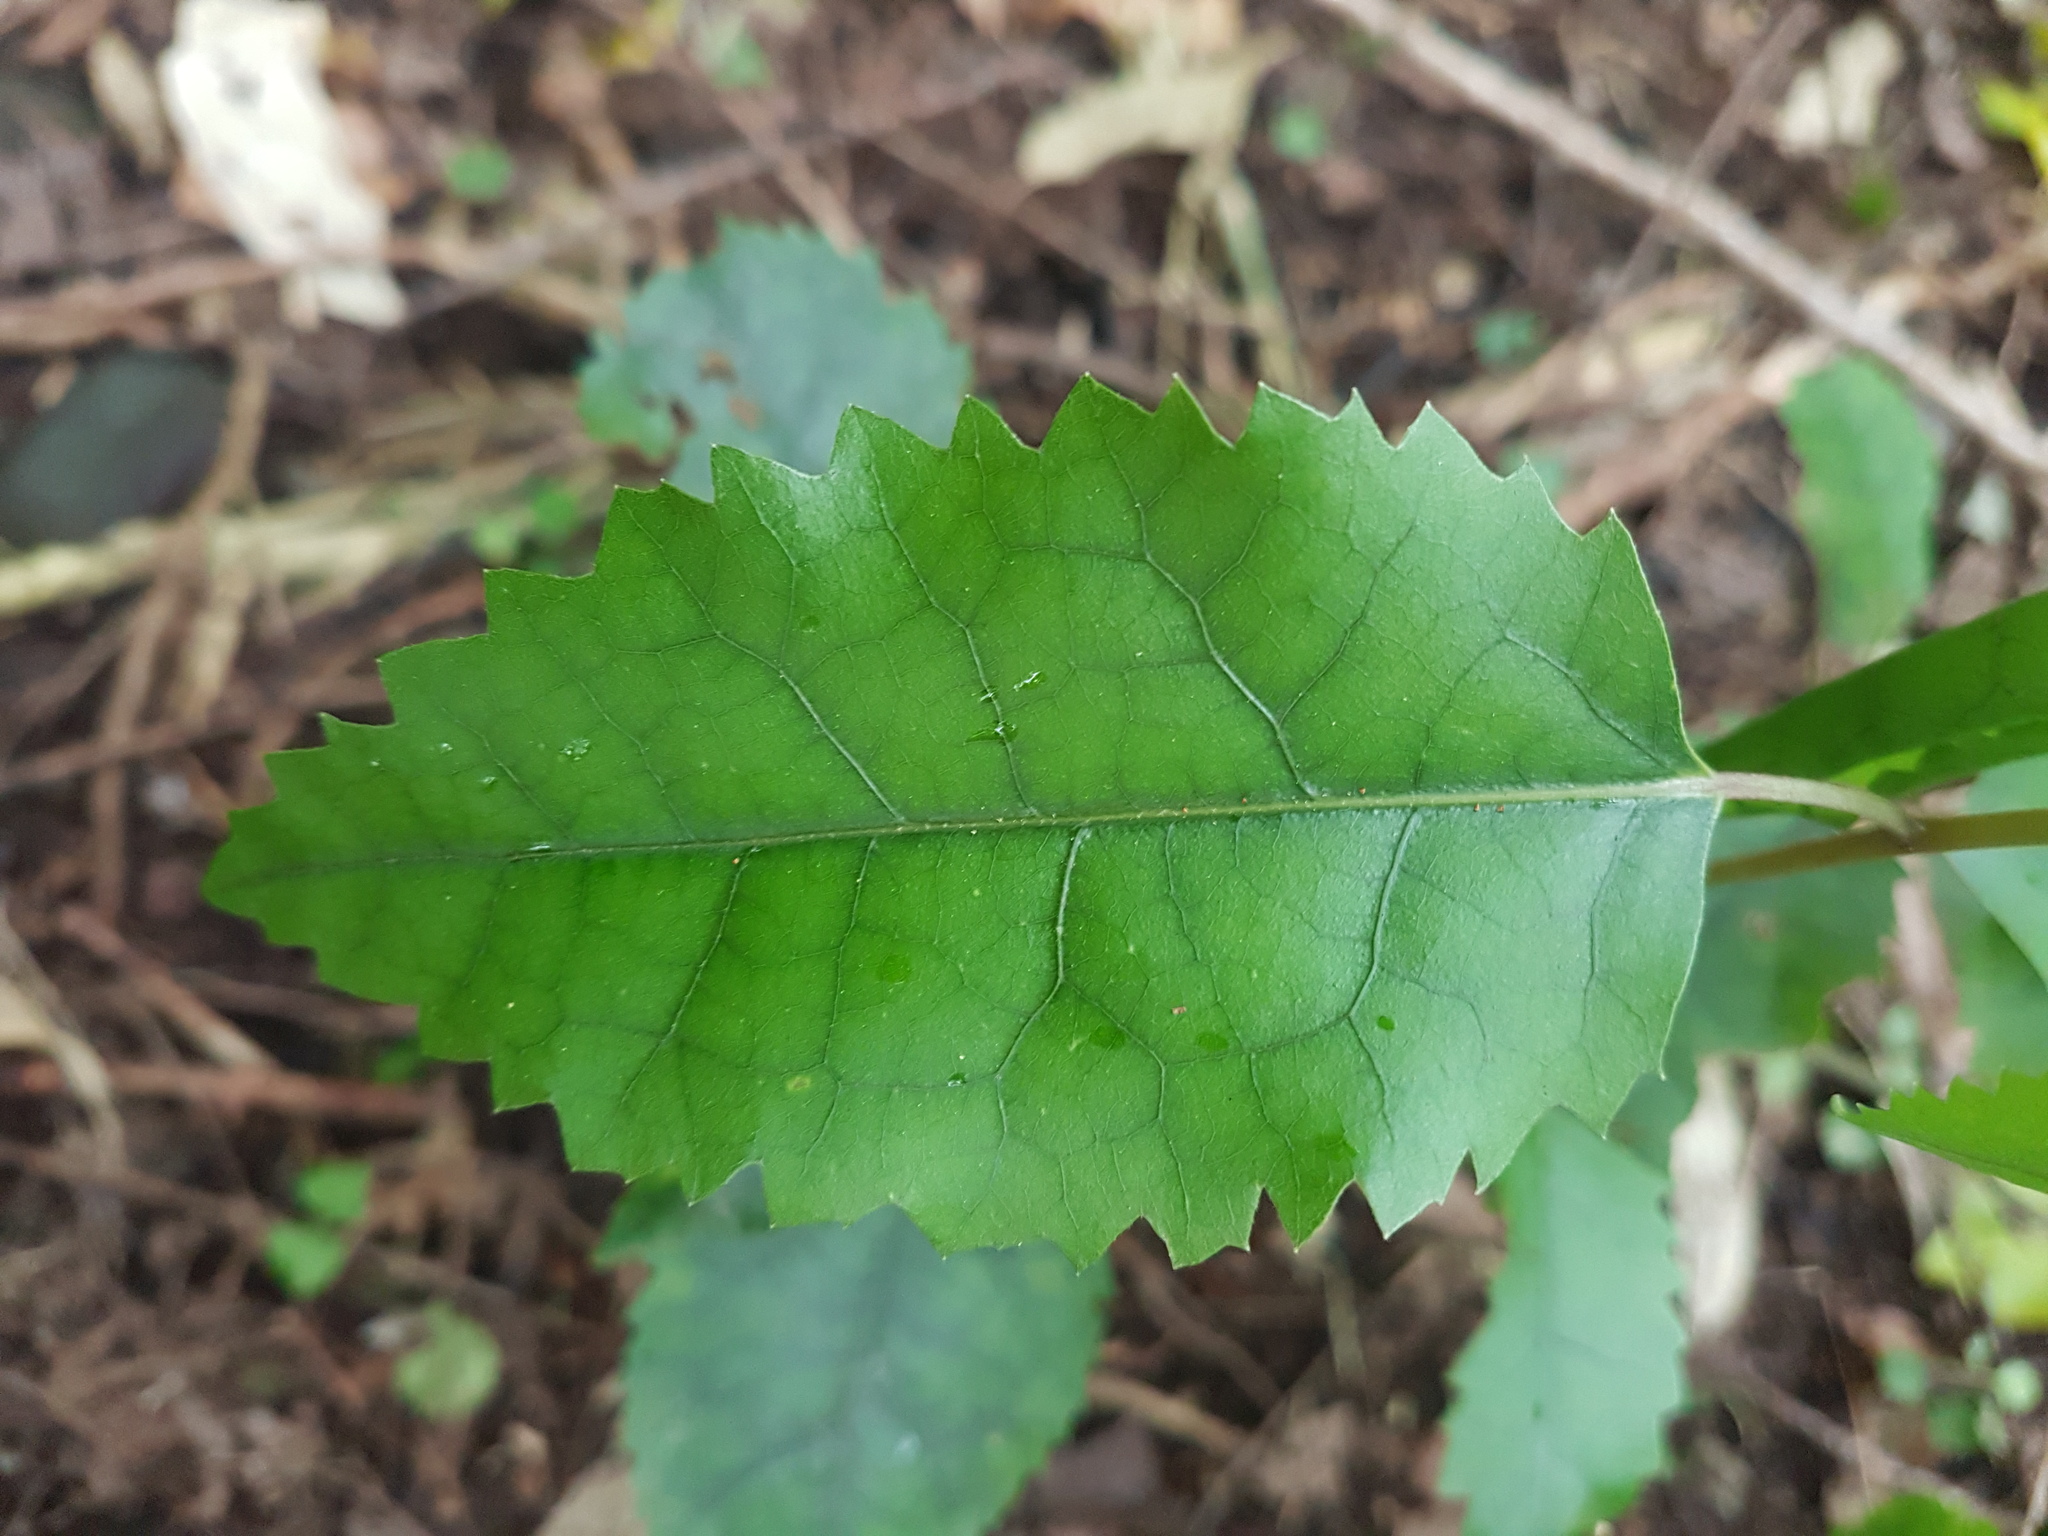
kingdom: Plantae
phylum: Tracheophyta
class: Magnoliopsida
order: Malvales
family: Malvaceae
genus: Hoheria
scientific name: Hoheria populnea
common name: Lacebark
